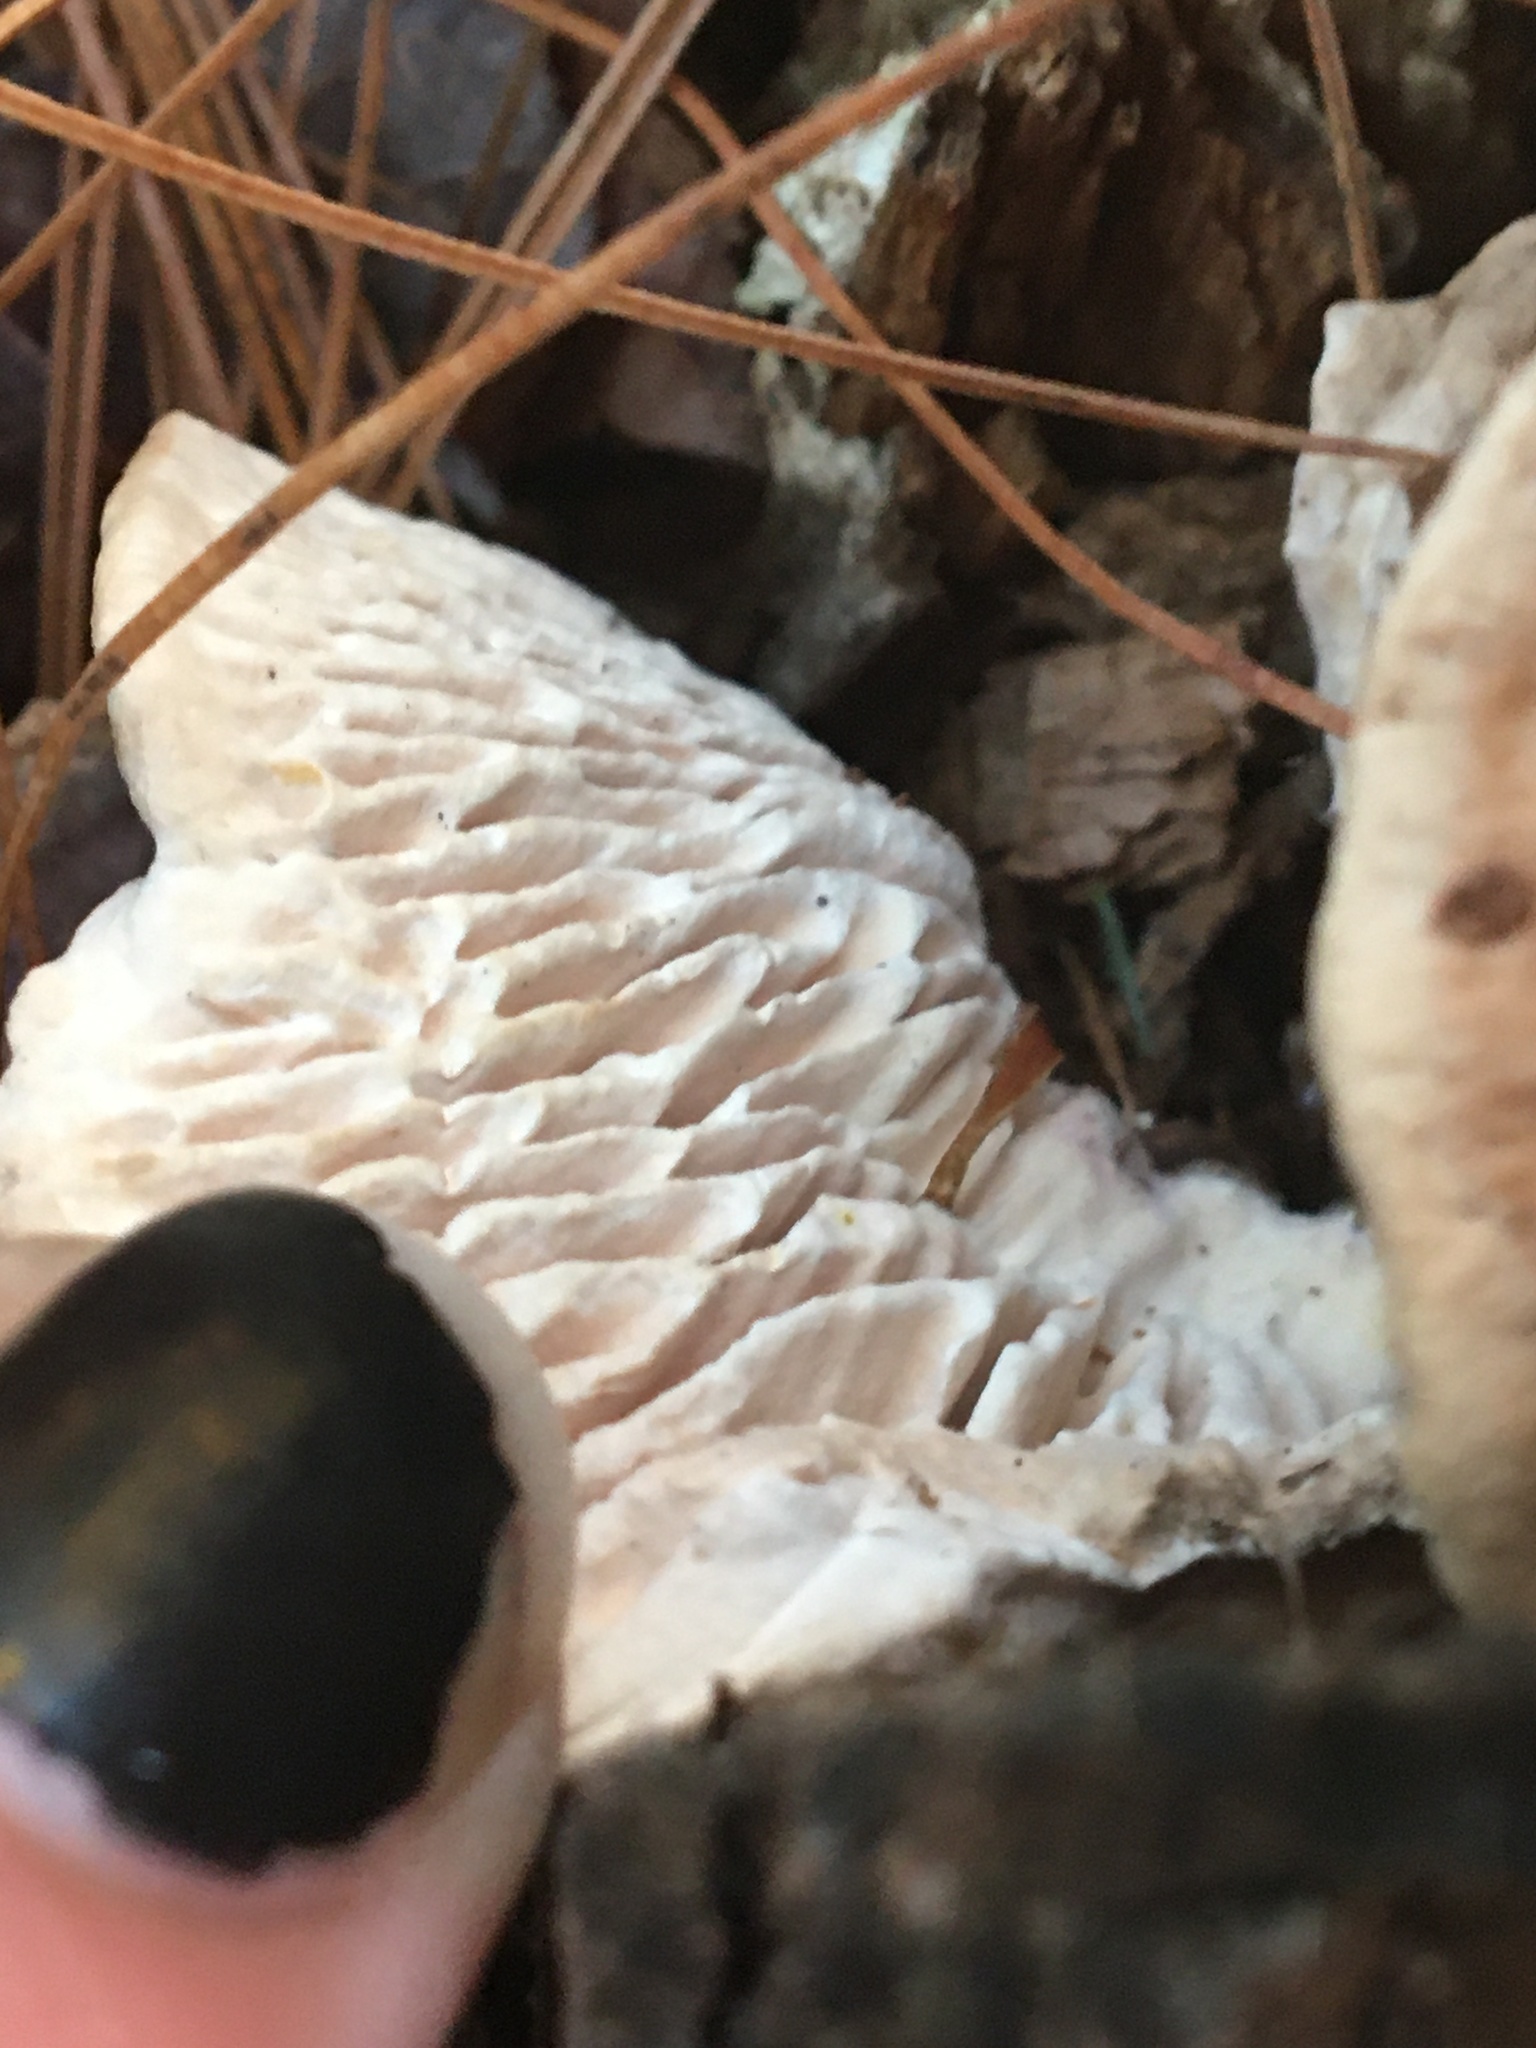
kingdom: Fungi
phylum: Basidiomycota
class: Agaricomycetes
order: Polyporales
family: Polyporaceae
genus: Trametes
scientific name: Trametes gibbosa
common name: Lumpy bracket
